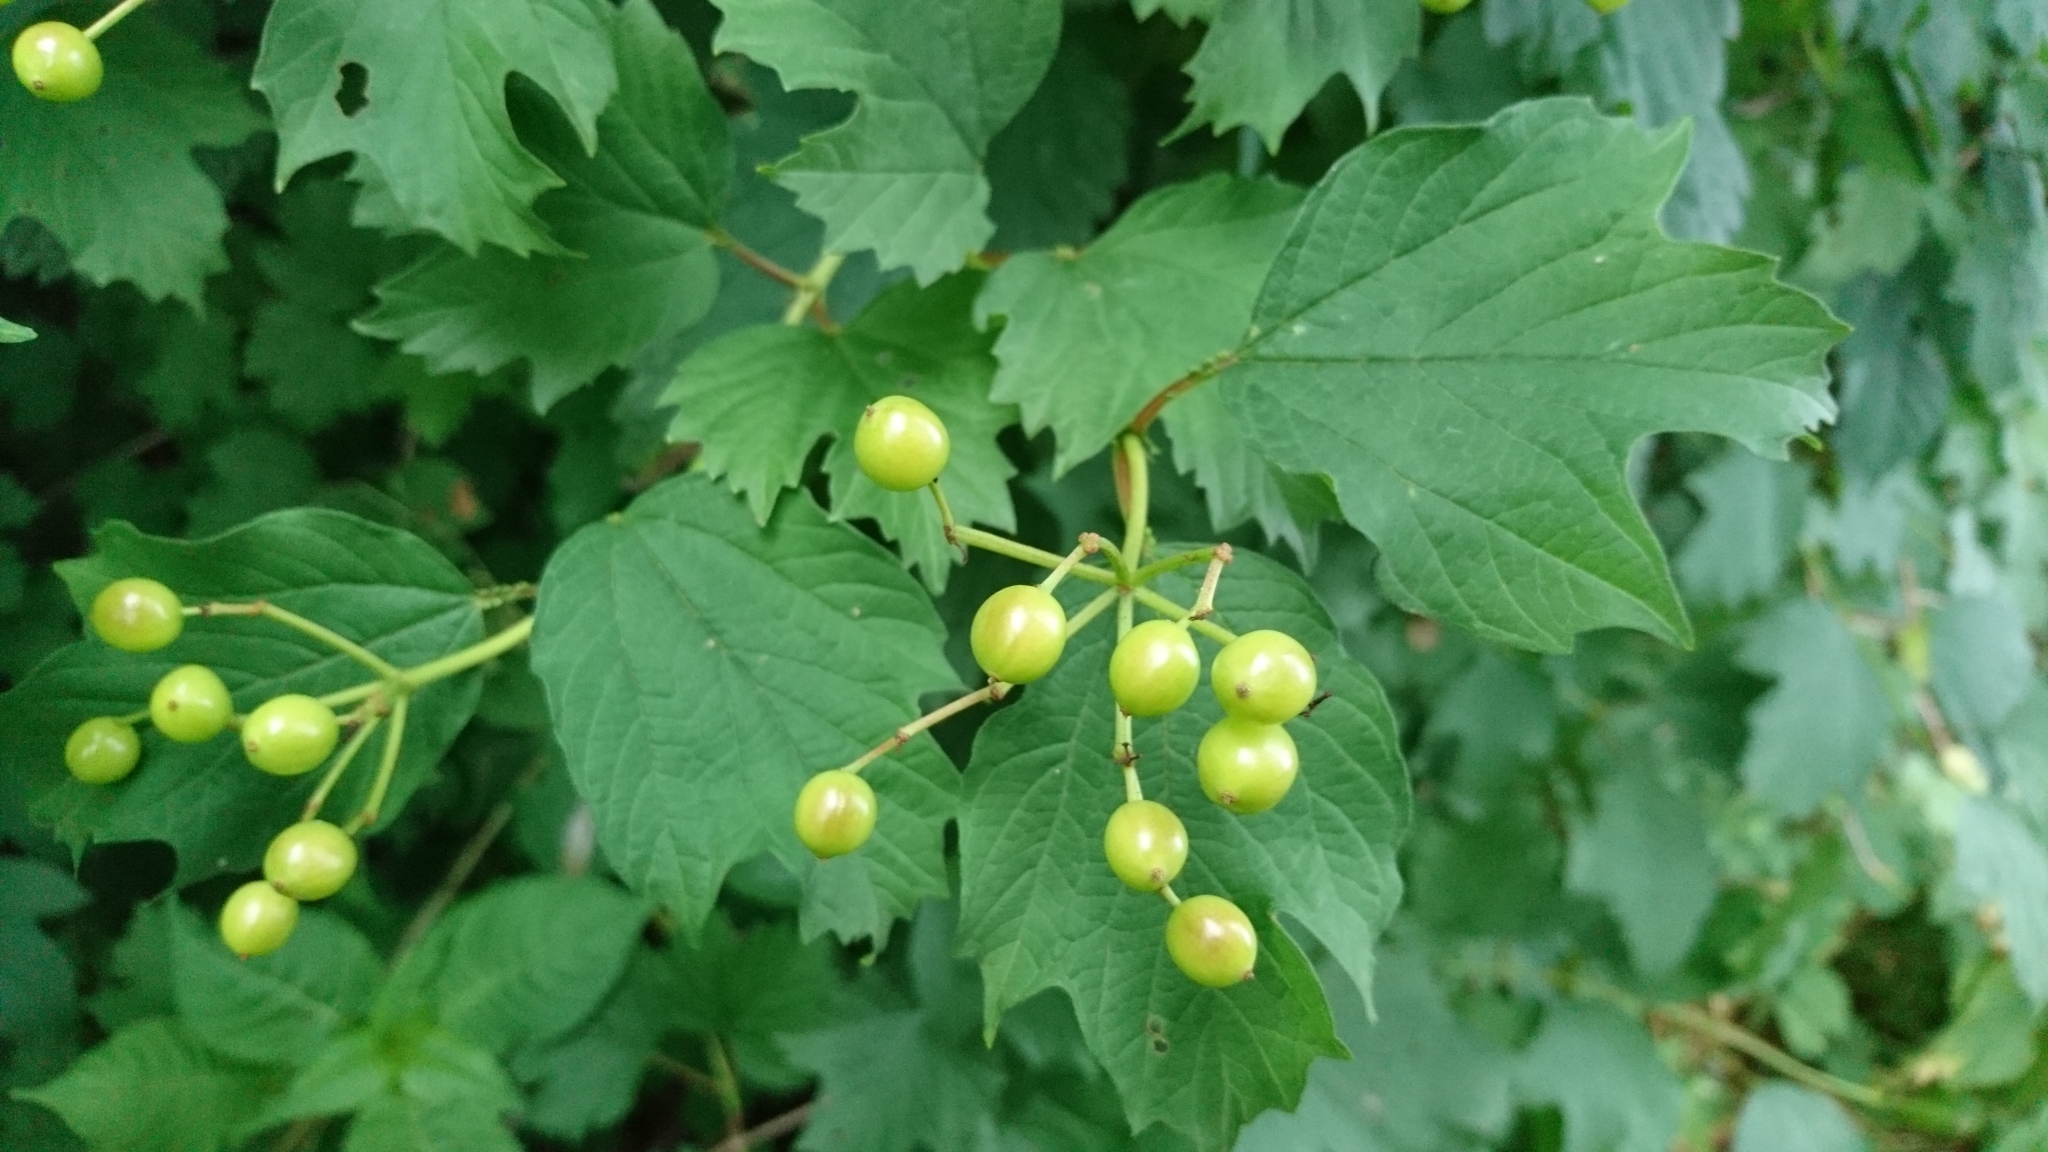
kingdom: Plantae
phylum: Tracheophyta
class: Magnoliopsida
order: Dipsacales
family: Viburnaceae
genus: Viburnum
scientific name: Viburnum opulus
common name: Guelder-rose
